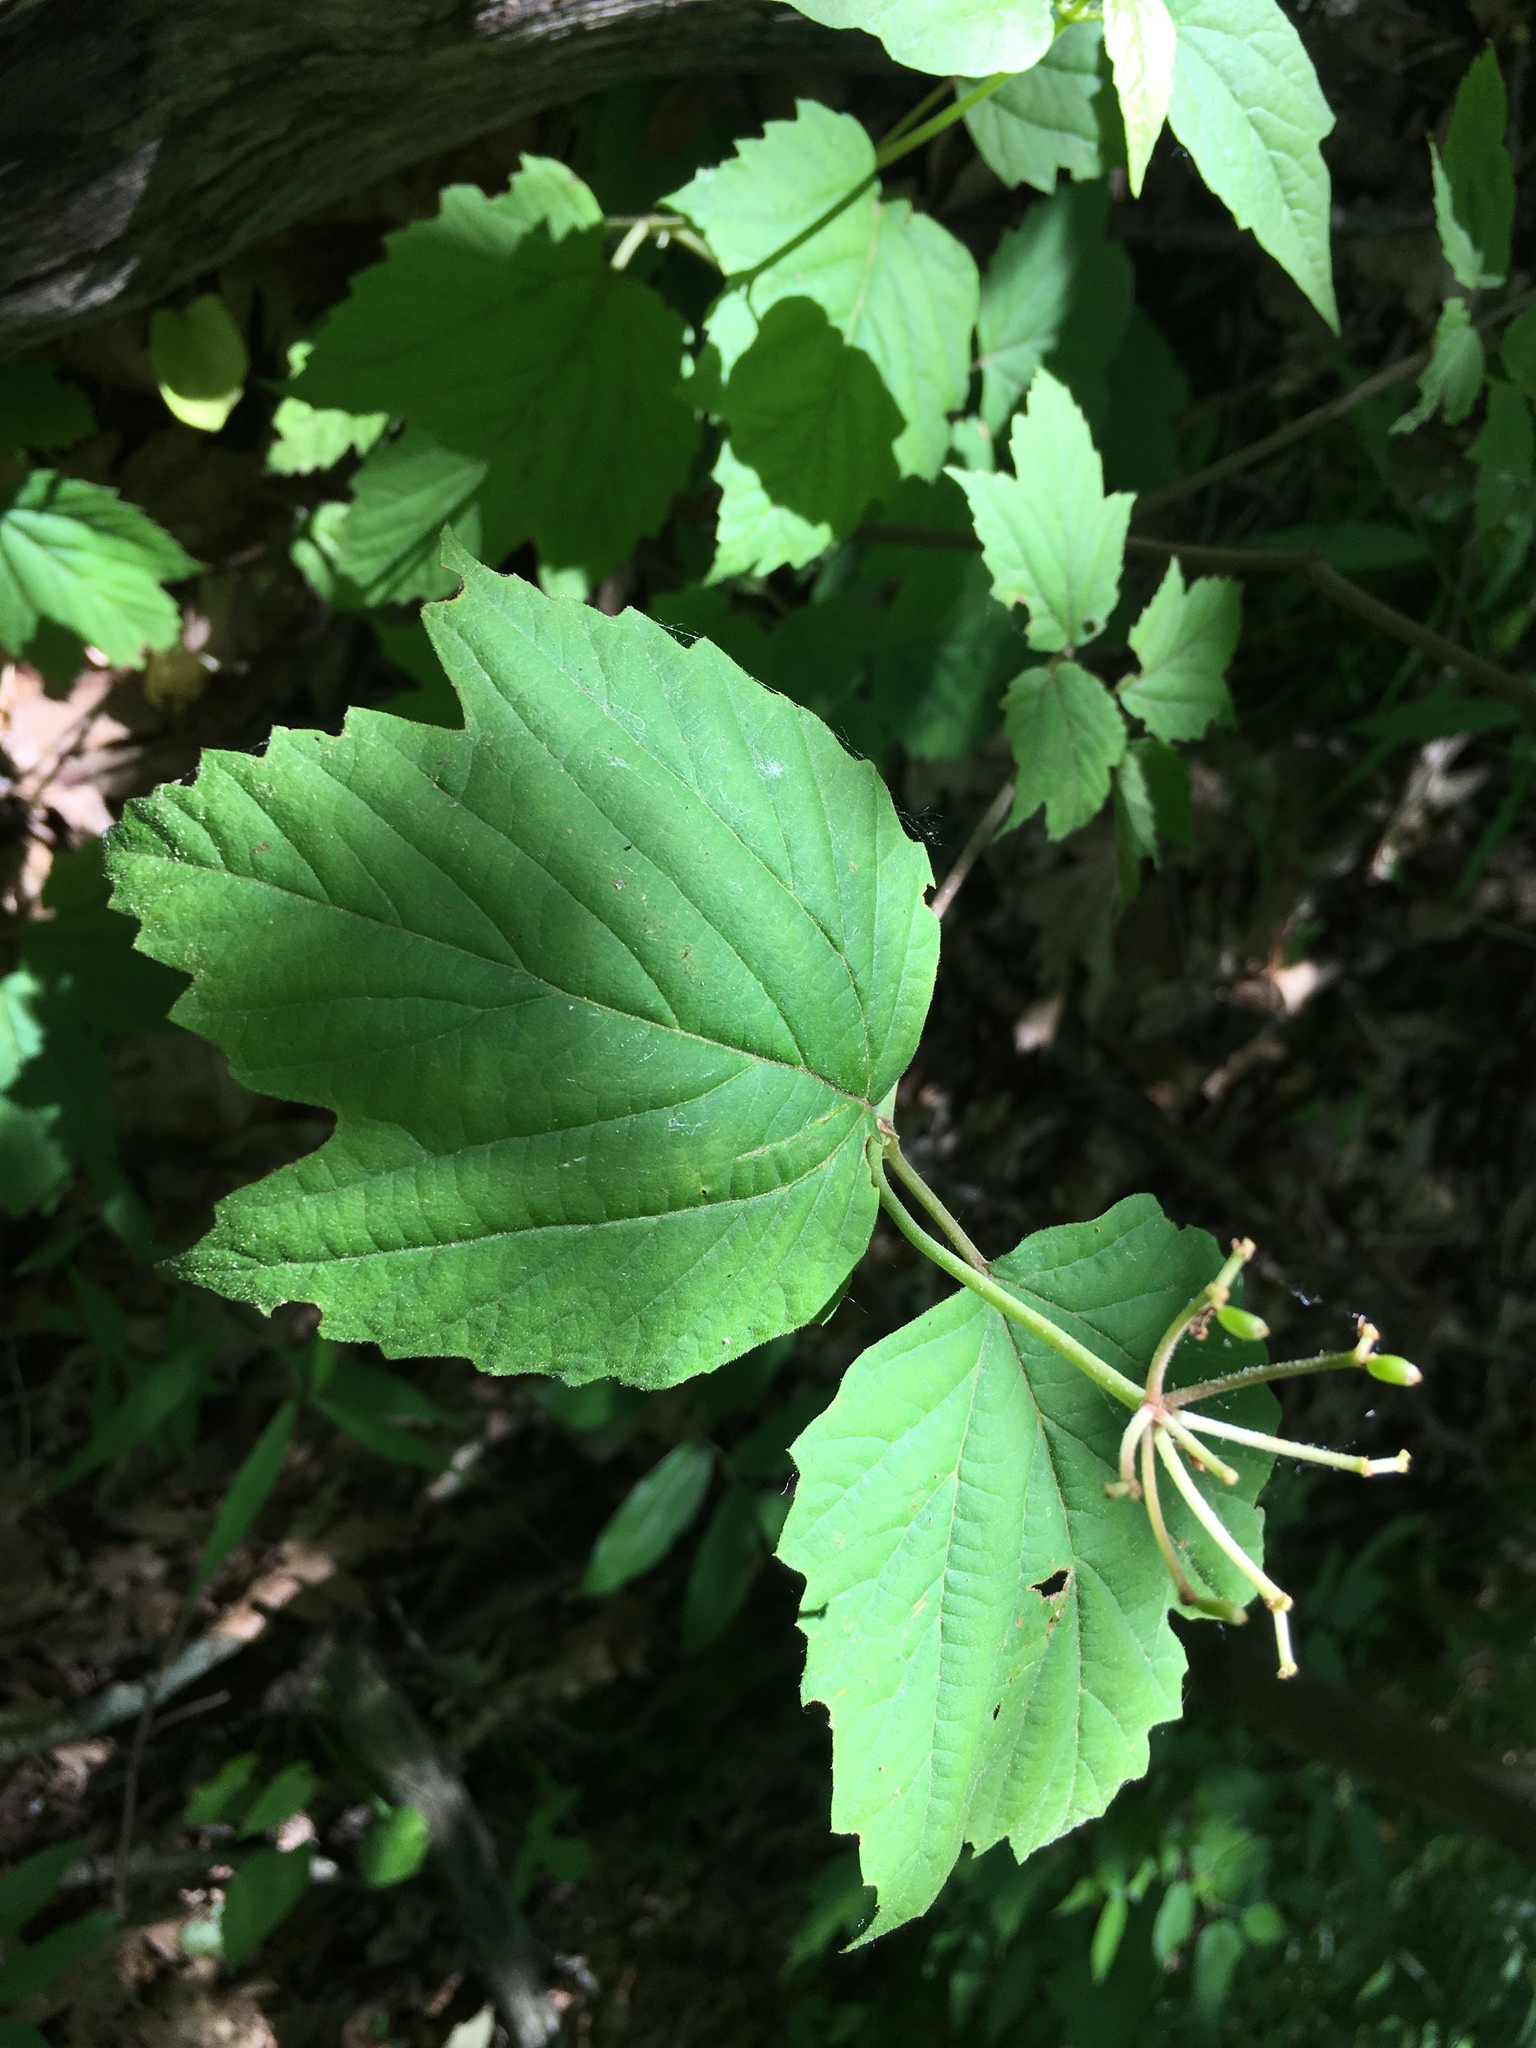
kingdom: Plantae
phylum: Tracheophyta
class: Magnoliopsida
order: Dipsacales
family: Viburnaceae
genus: Viburnum
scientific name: Viburnum acerifolium
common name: Dockmackie
